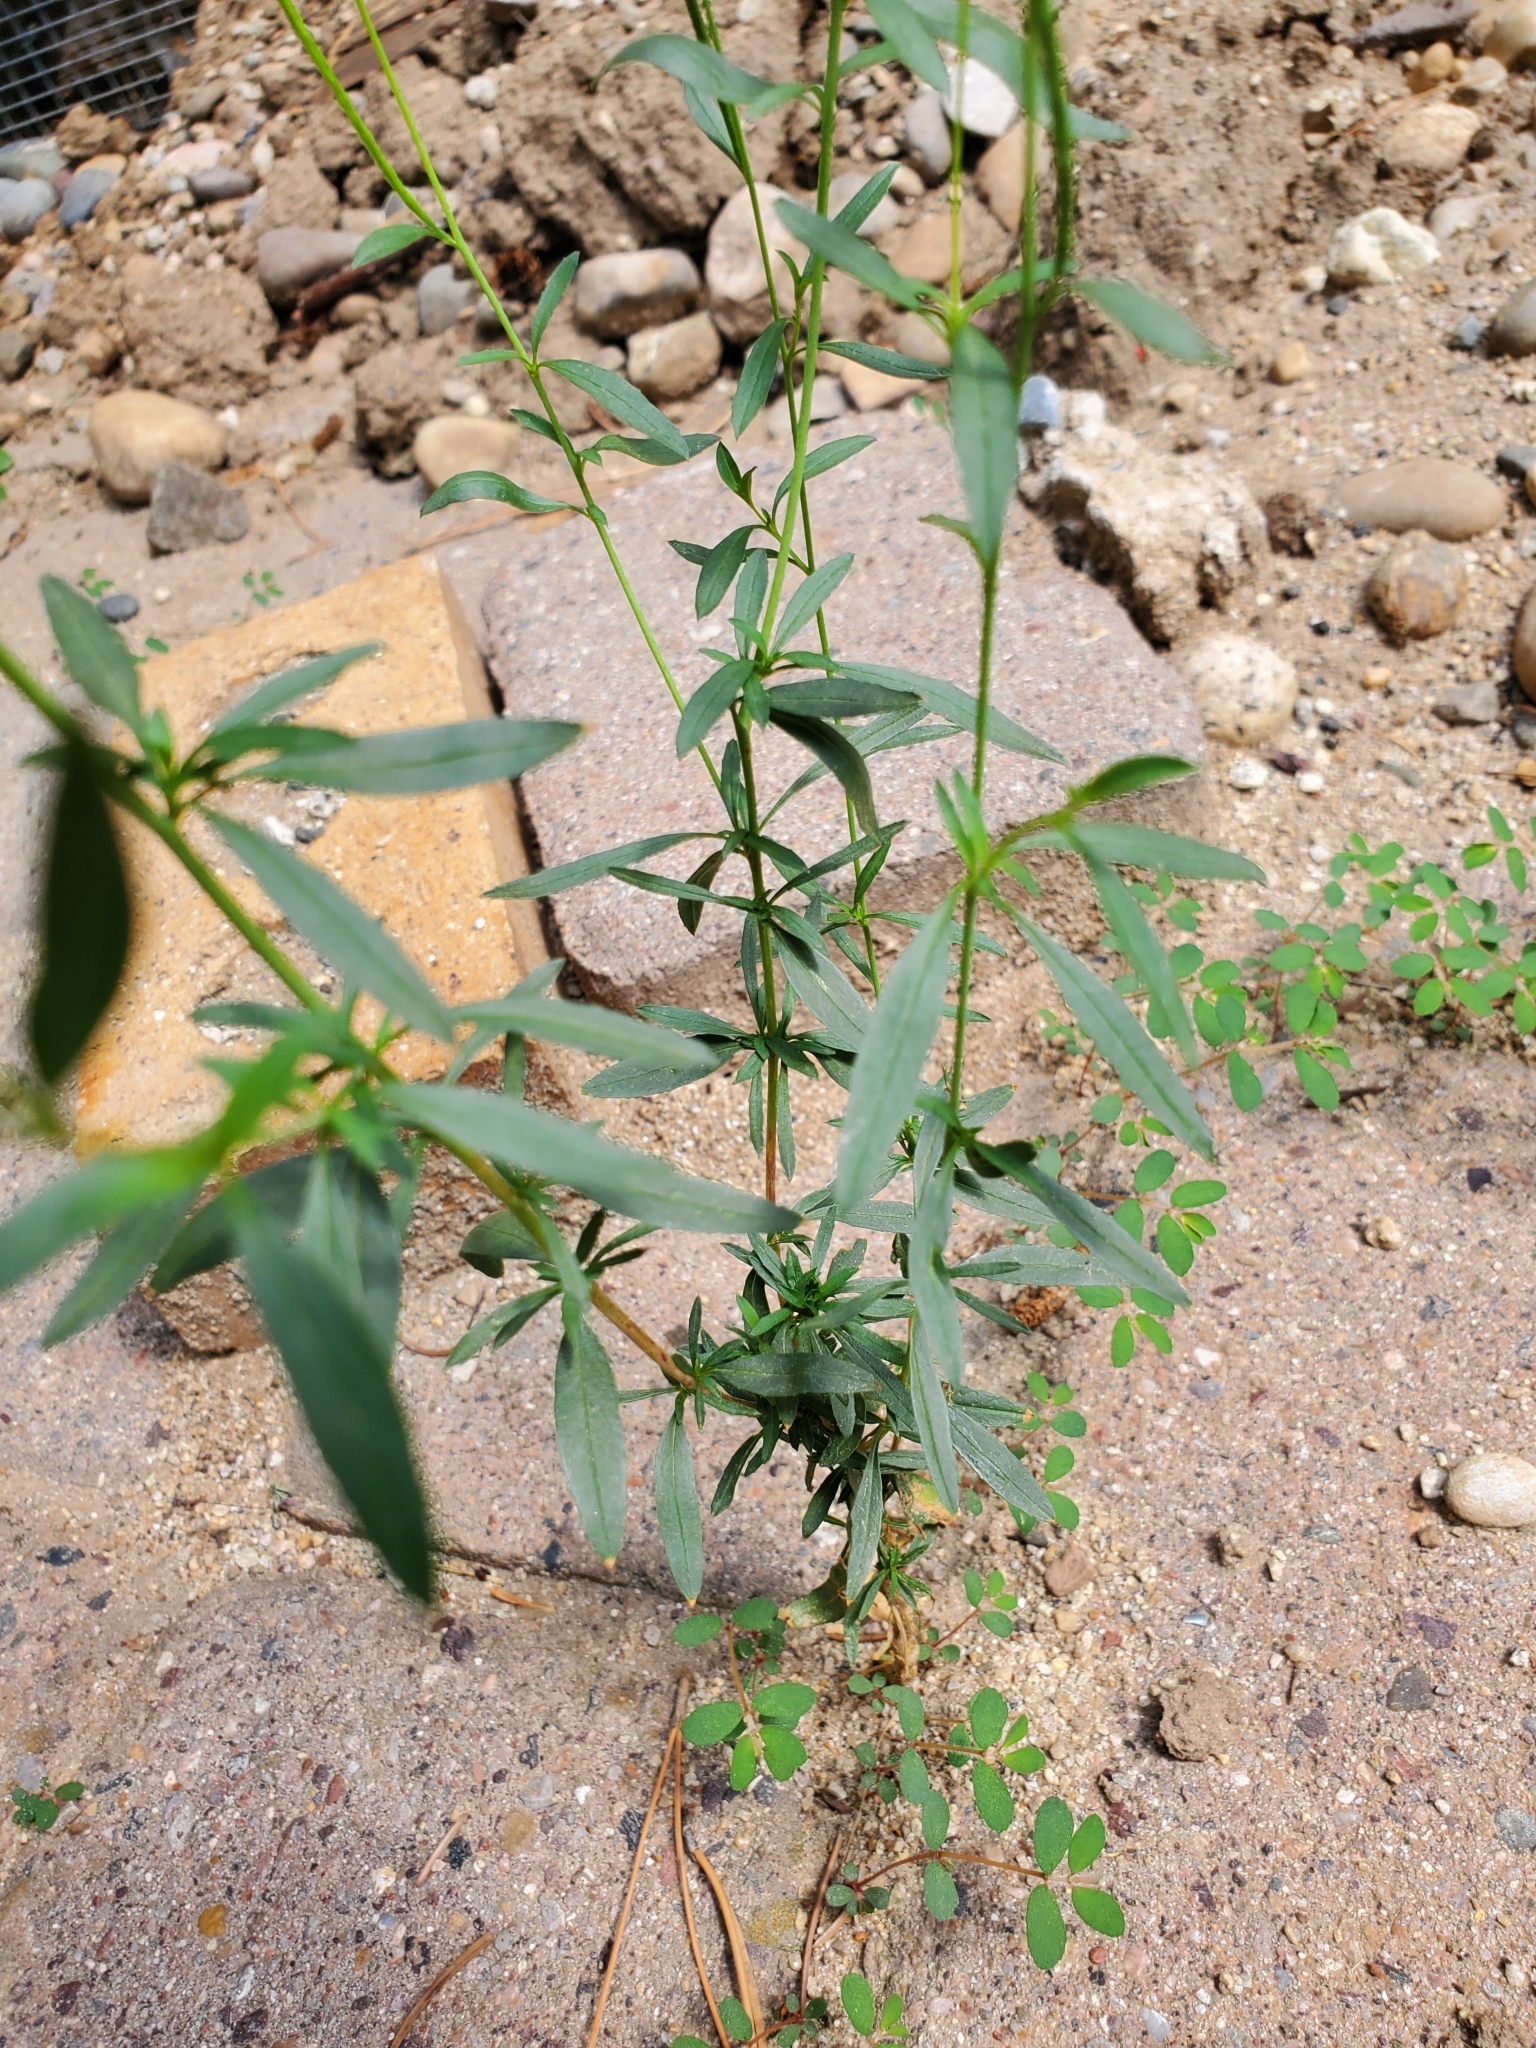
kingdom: Plantae
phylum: Tracheophyta
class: Magnoliopsida
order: Myrtales
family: Onagraceae
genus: Epilobium
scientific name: Epilobium brachycarpum
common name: Annual willowherb
